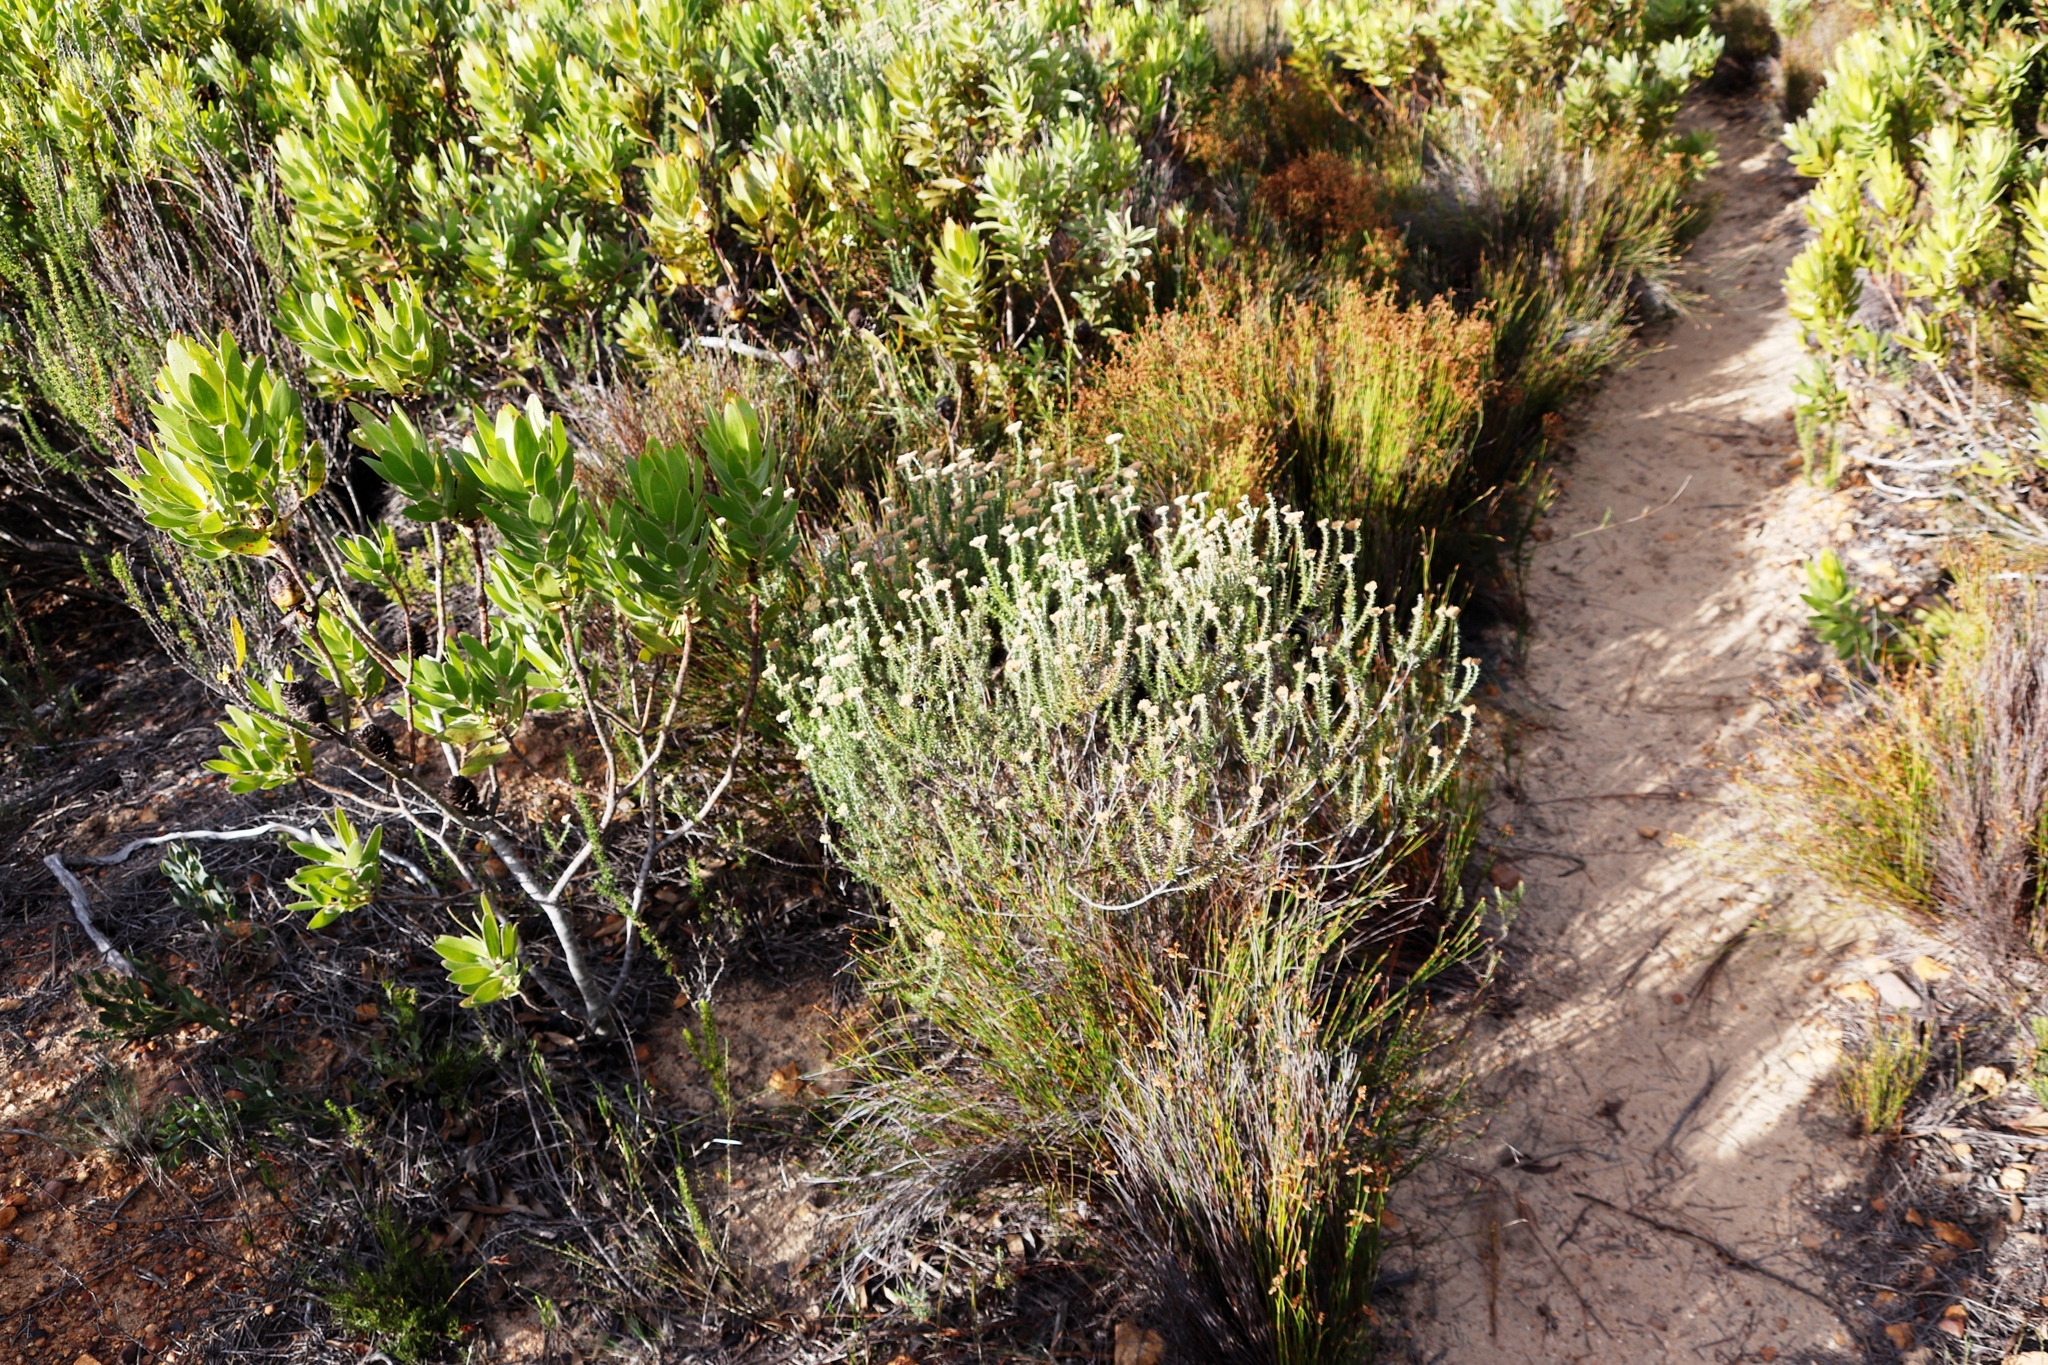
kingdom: Plantae
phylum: Tracheophyta
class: Magnoliopsida
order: Asterales
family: Asteraceae
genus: Metalasia
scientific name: Metalasia densa
